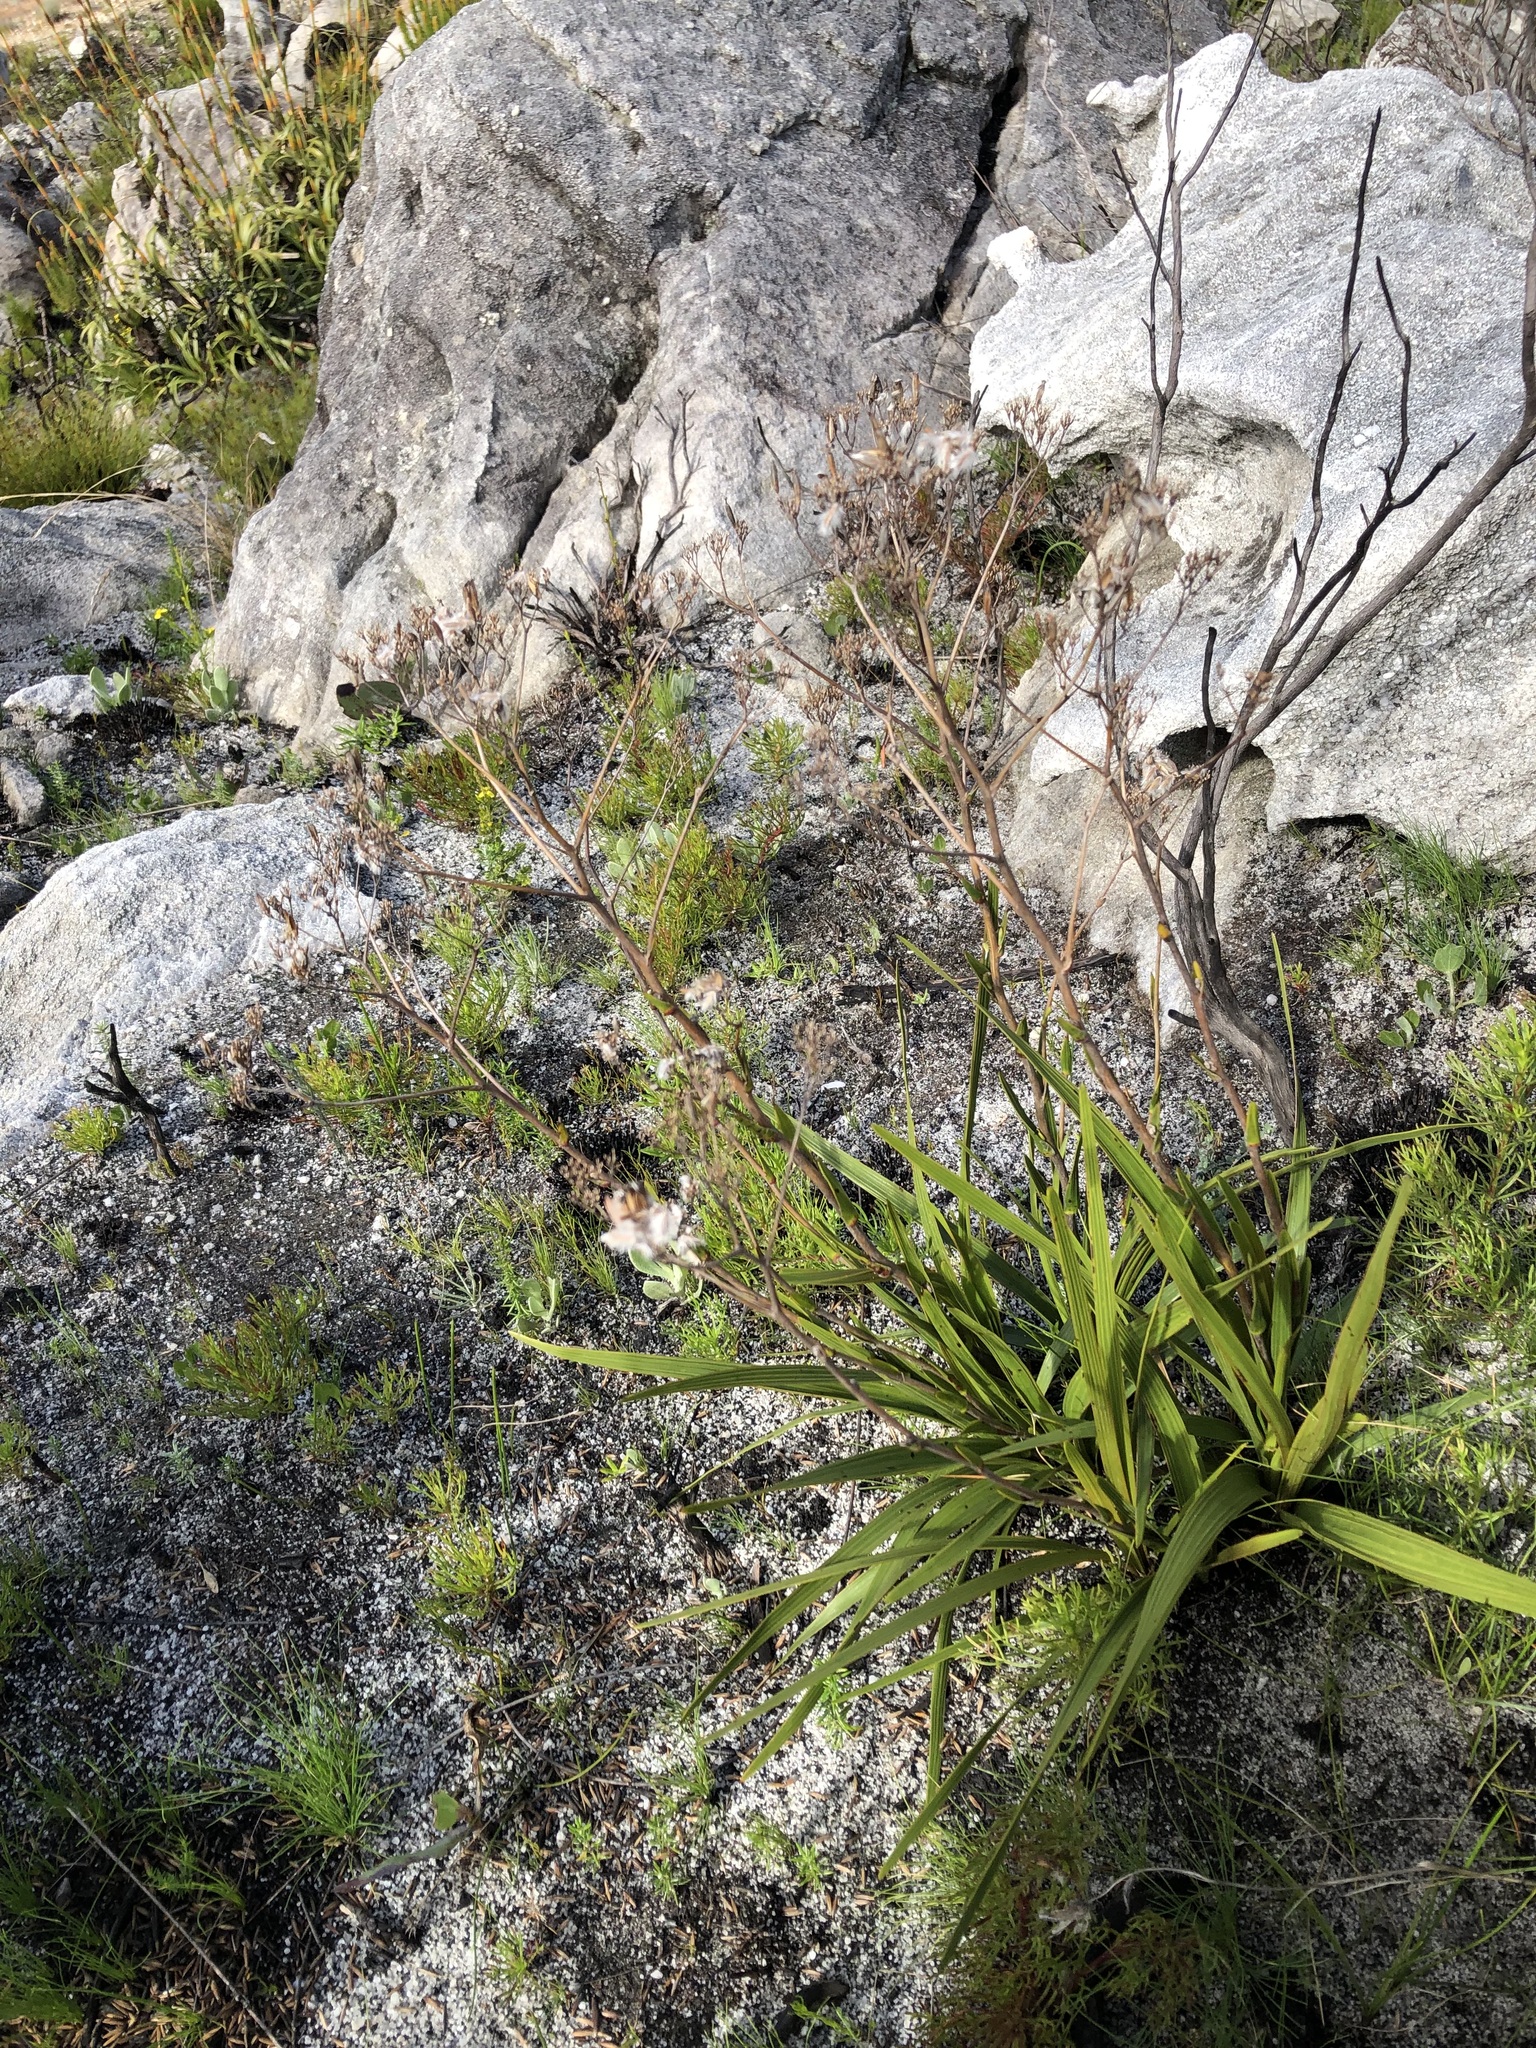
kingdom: Plantae
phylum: Tracheophyta
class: Magnoliopsida
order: Asterales
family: Asteraceae
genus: Corymbium
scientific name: Corymbium glabrum
